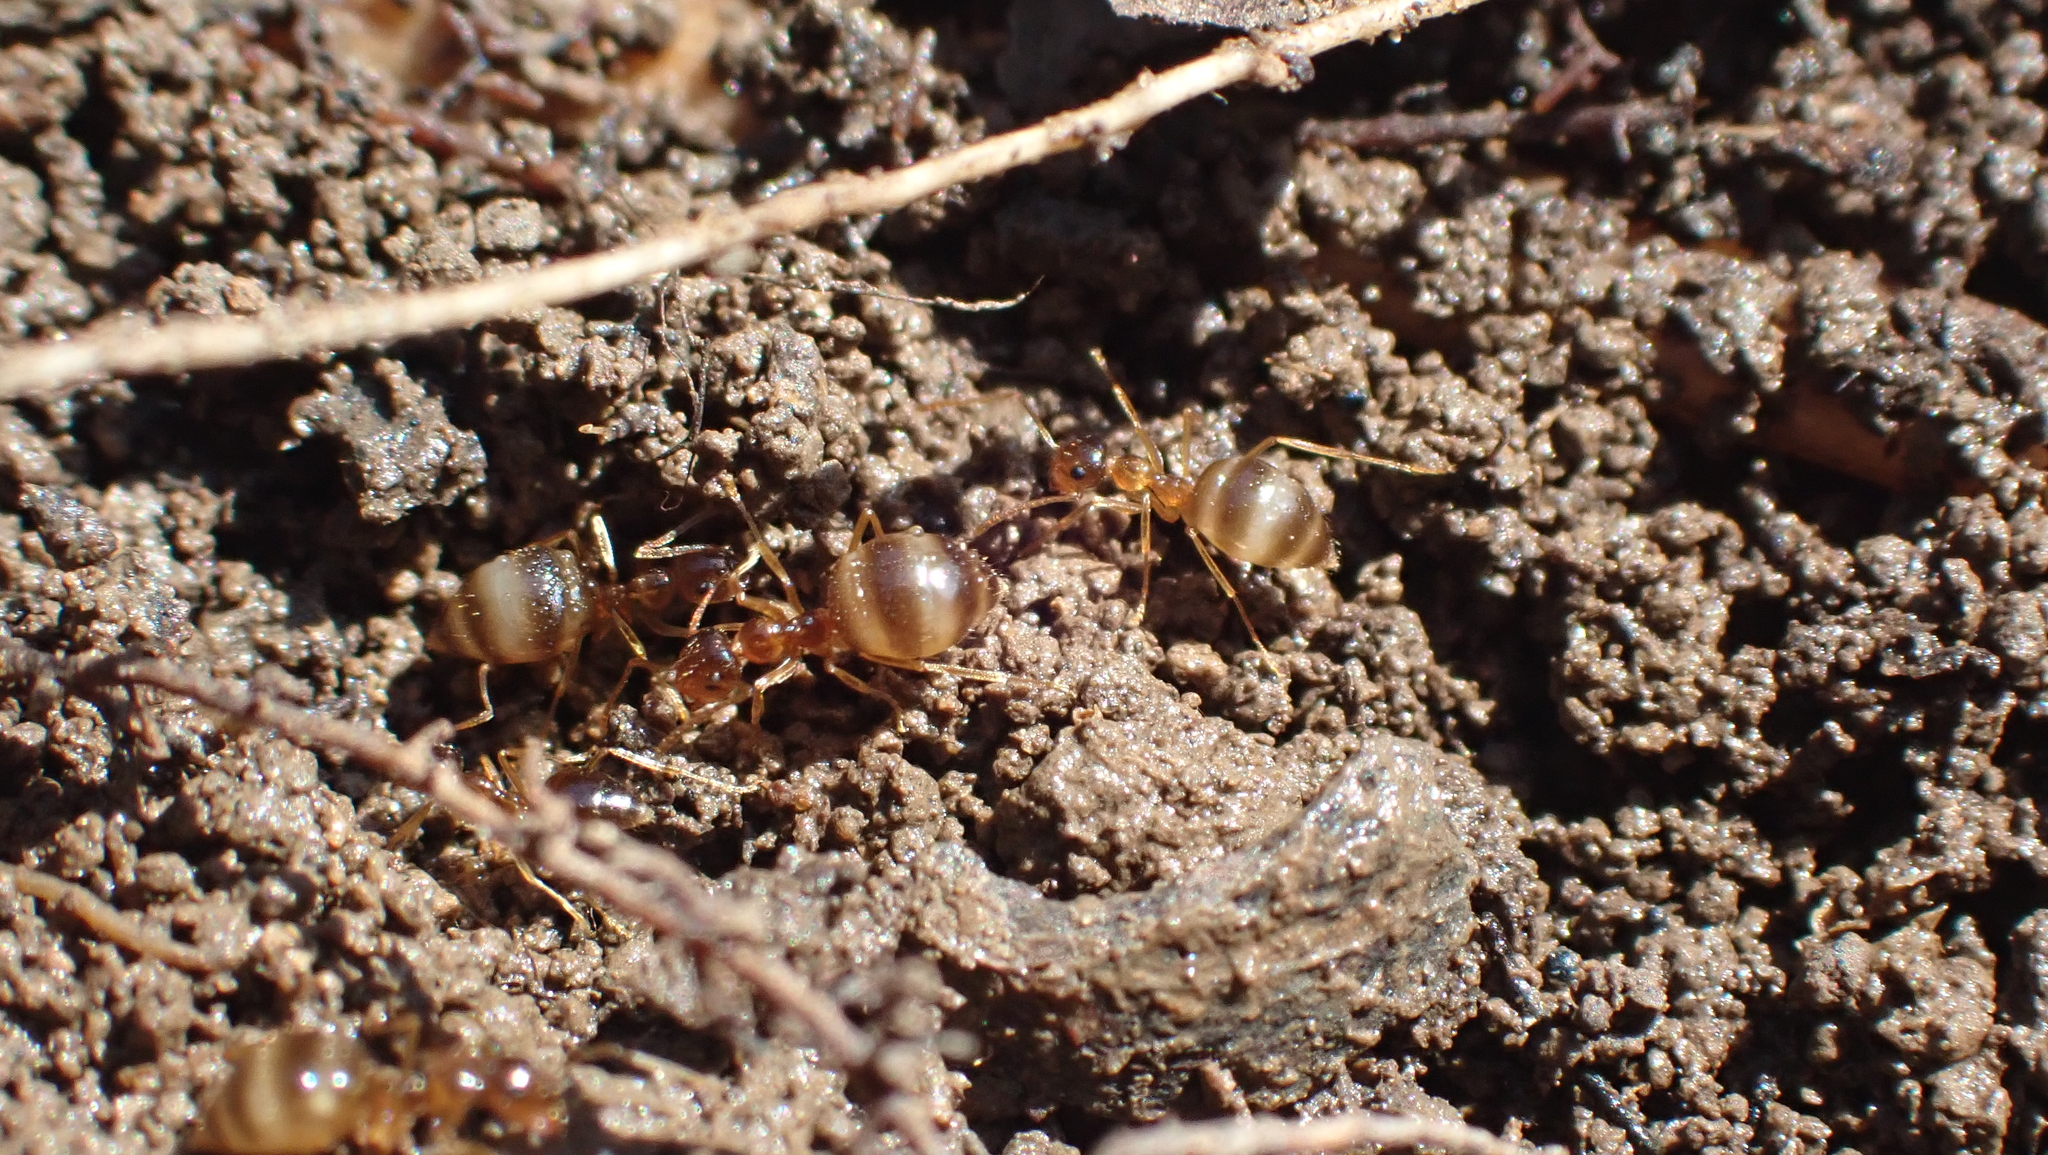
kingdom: Animalia
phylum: Arthropoda
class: Insecta
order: Hymenoptera
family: Formicidae
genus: Prenolepis
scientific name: Prenolepis imparis
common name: Small honey ant
